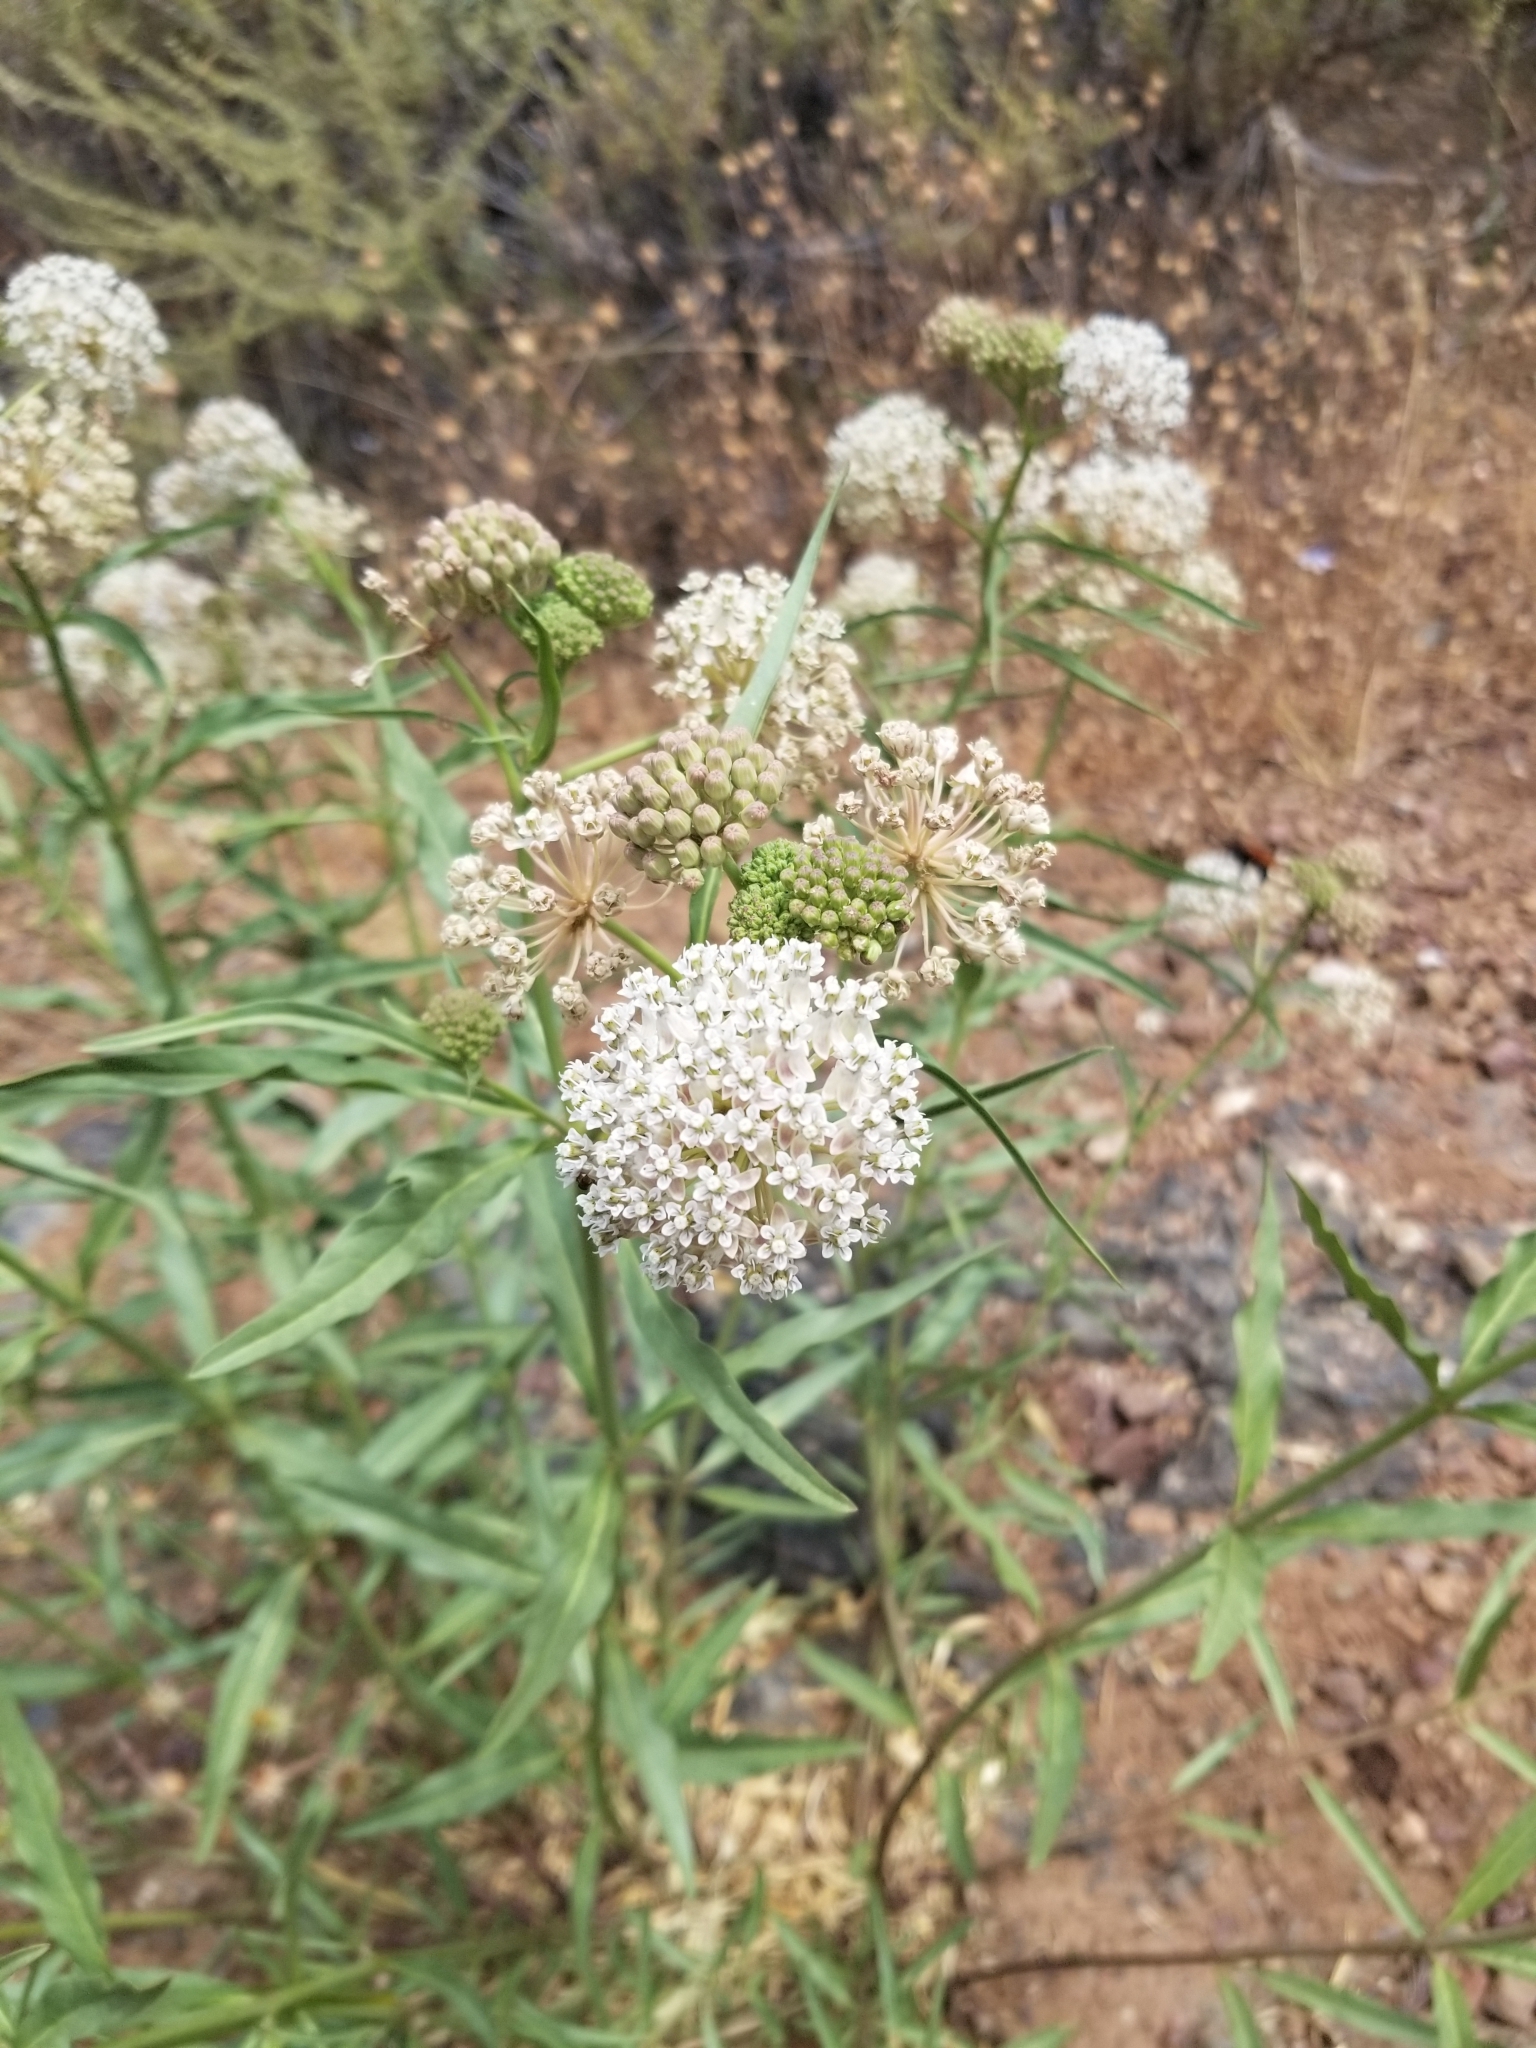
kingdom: Plantae
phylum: Tracheophyta
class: Magnoliopsida
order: Gentianales
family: Apocynaceae
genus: Asclepias
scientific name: Asclepias fascicularis
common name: Mexican milkweed
